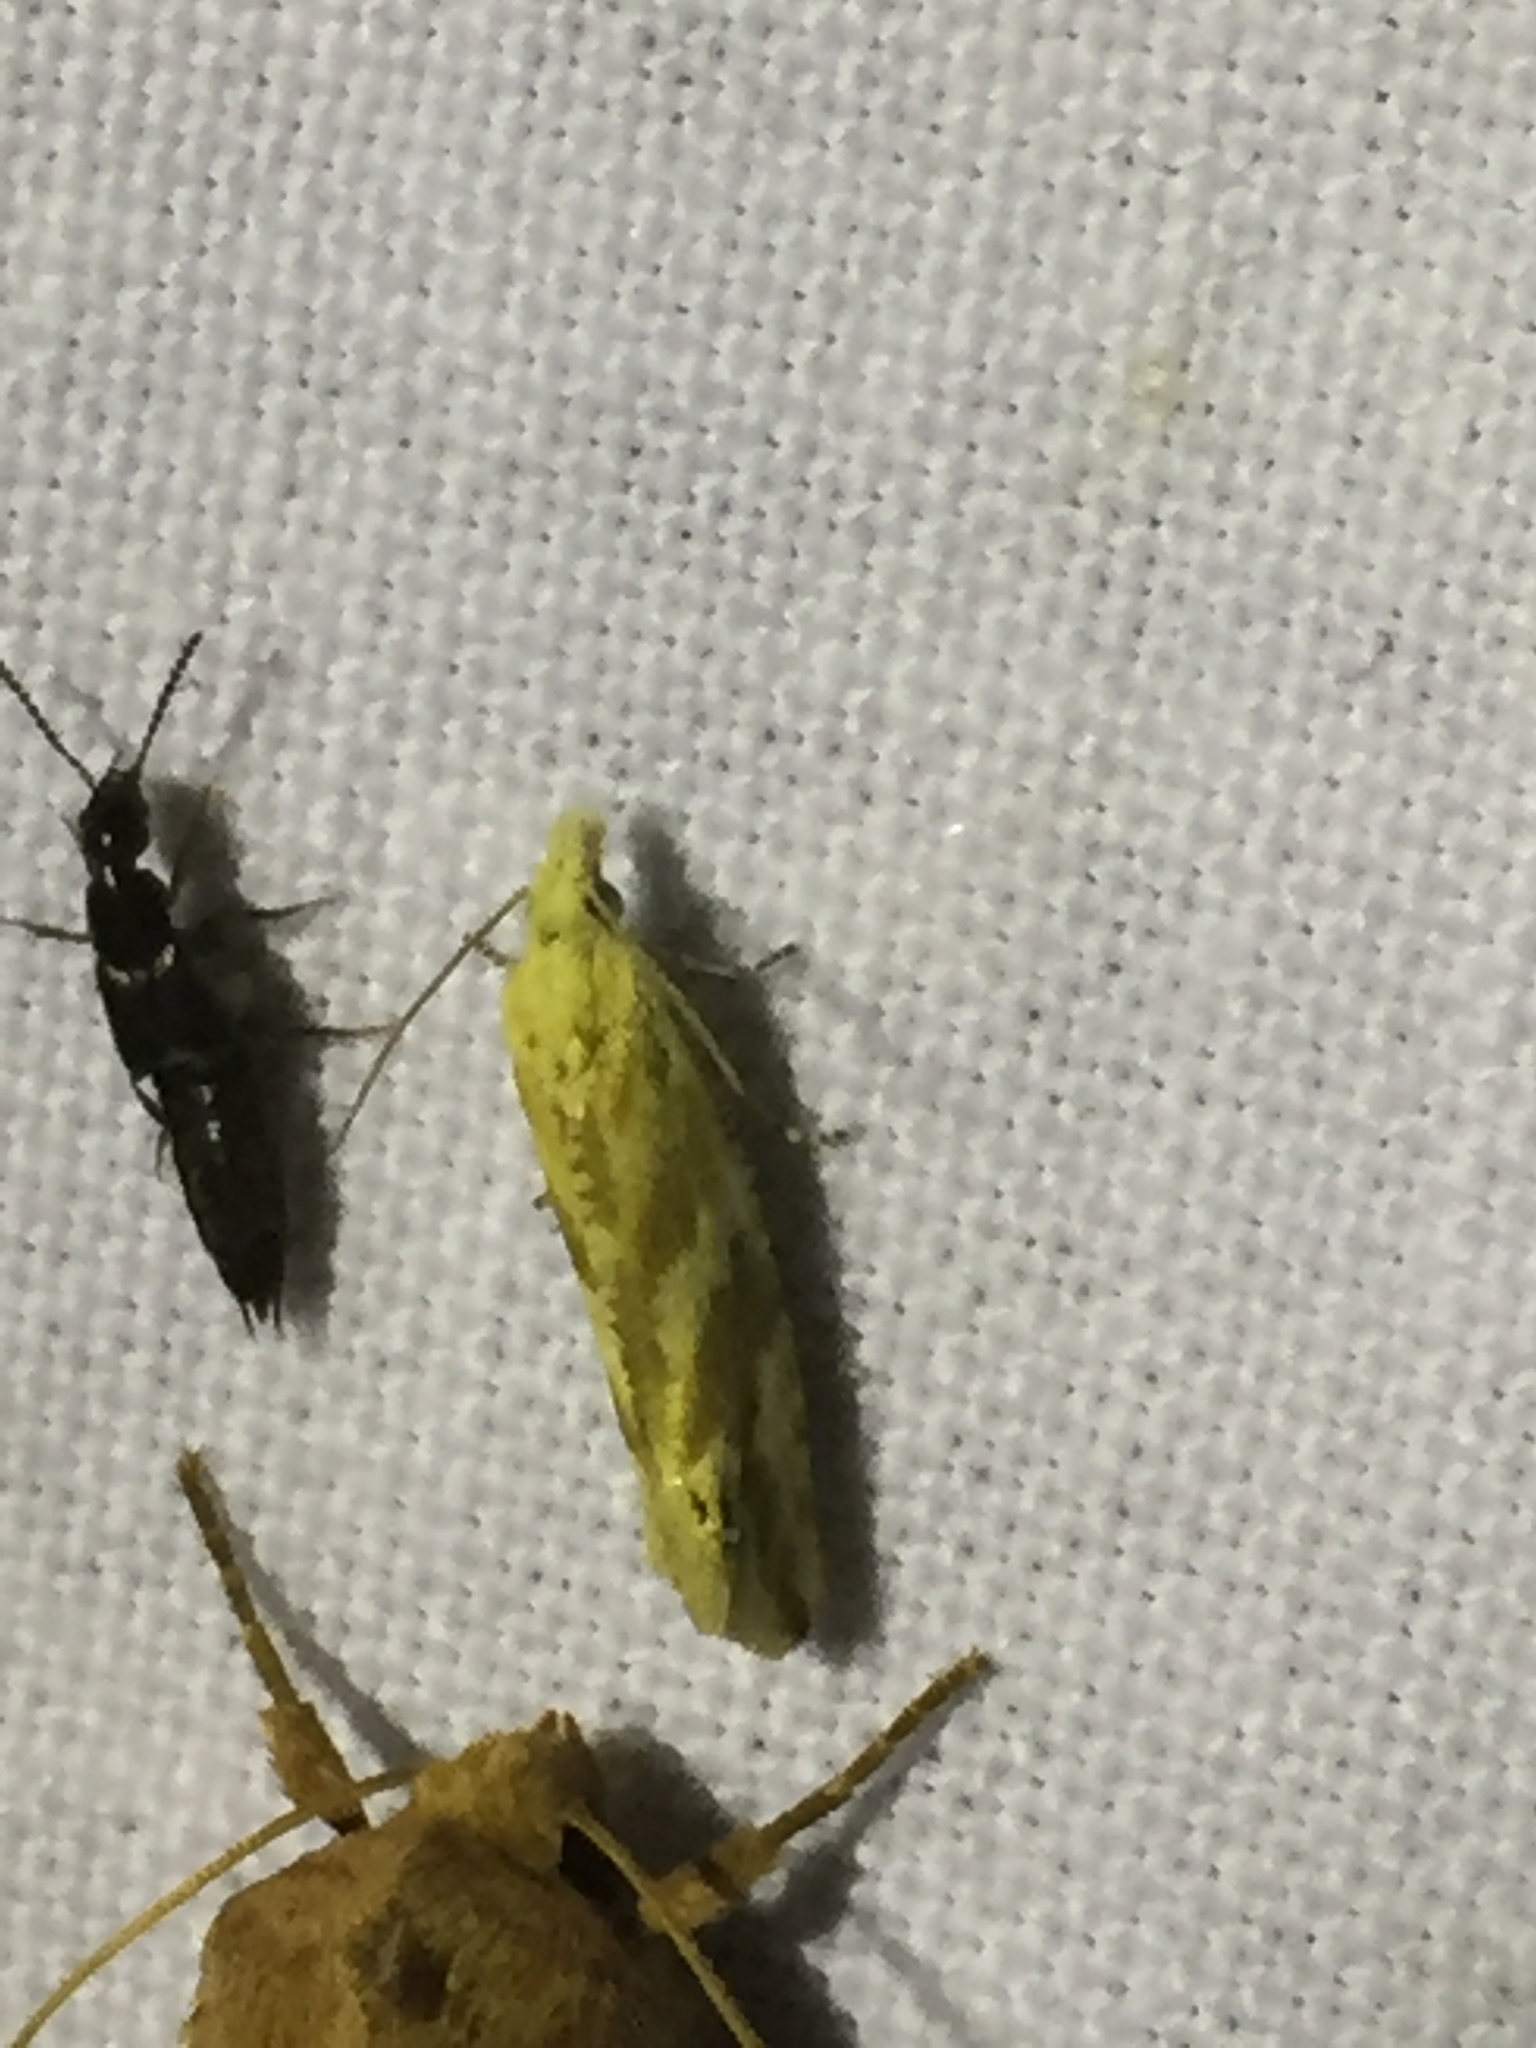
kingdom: Animalia
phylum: Arthropoda
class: Insecta
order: Lepidoptera
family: Tortricidae
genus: Thiodia
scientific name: Thiodia citrana
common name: Lemon bell
